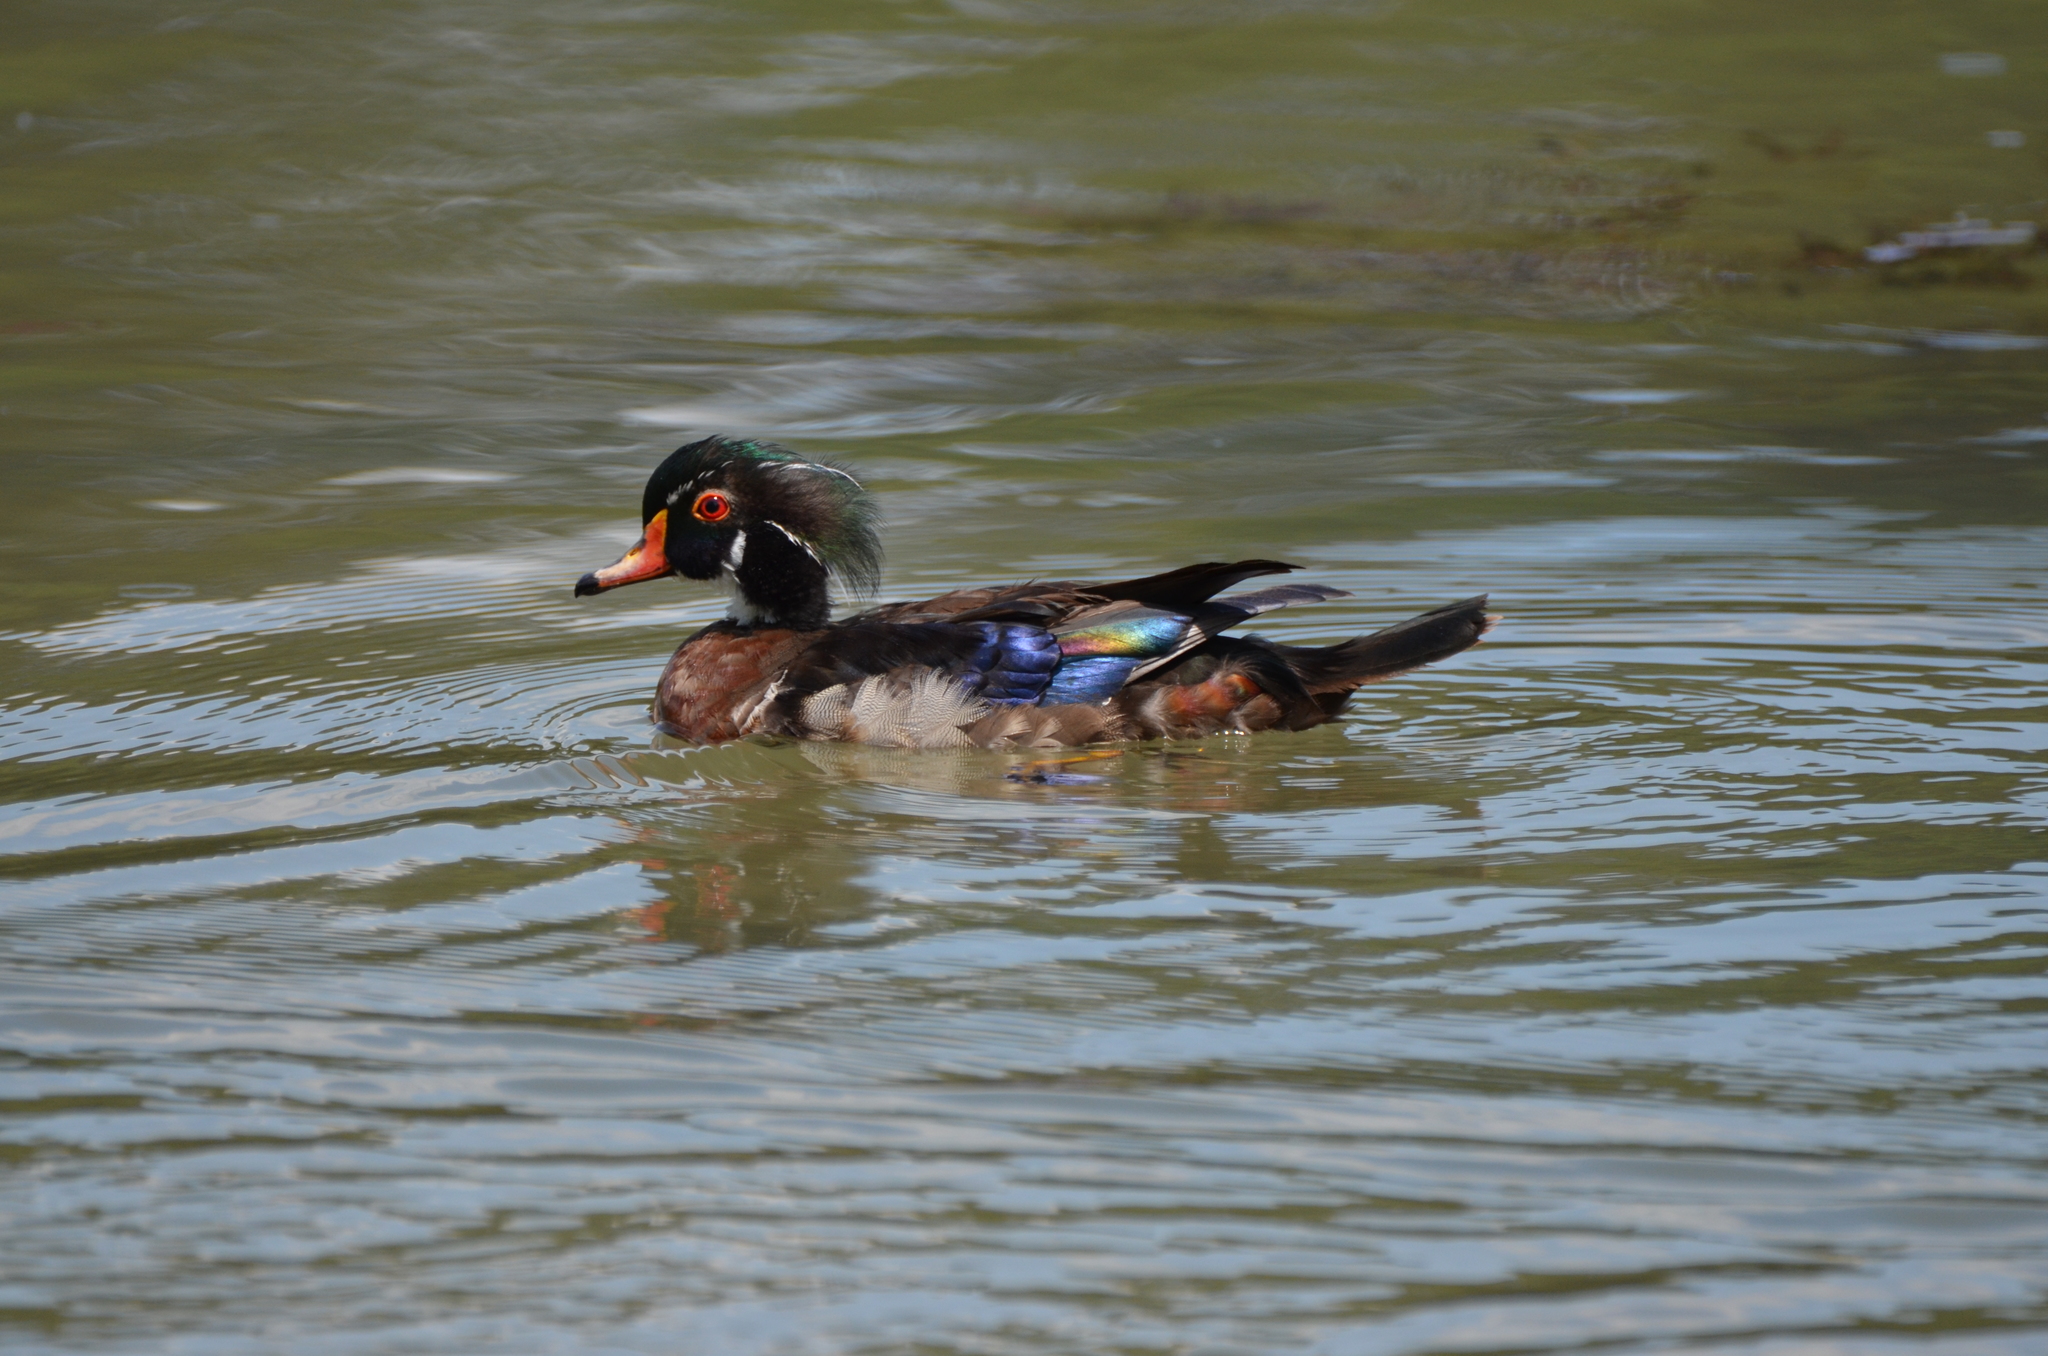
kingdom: Animalia
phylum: Chordata
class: Aves
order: Anseriformes
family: Anatidae
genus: Aix
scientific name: Aix sponsa
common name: Wood duck
